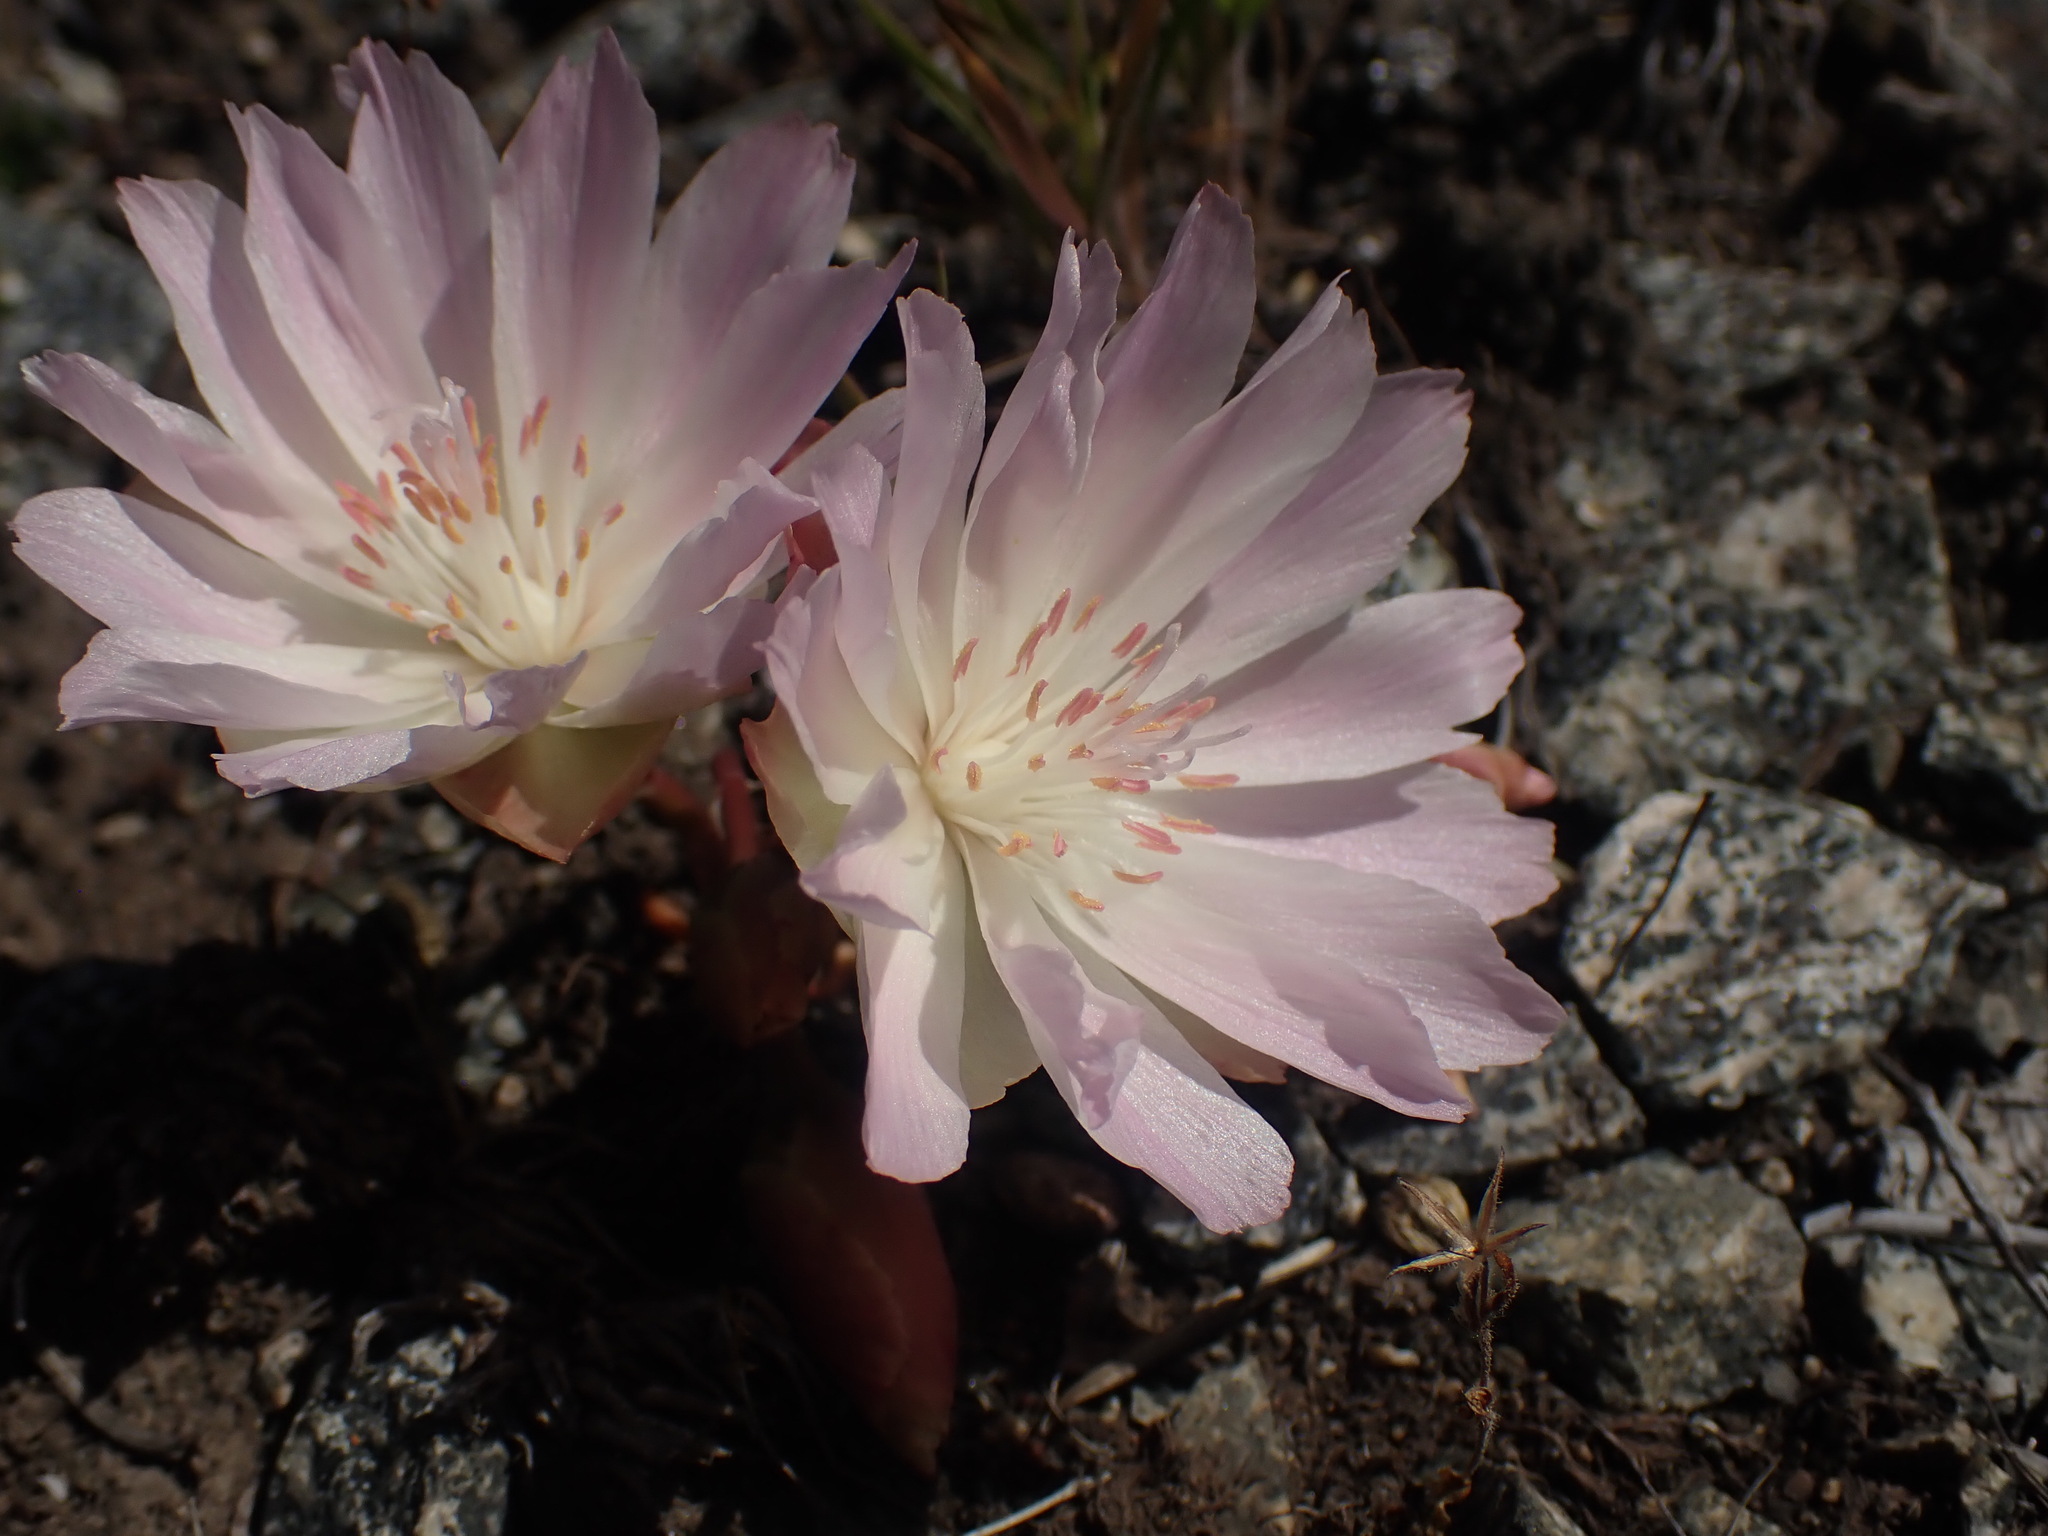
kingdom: Plantae
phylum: Tracheophyta
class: Magnoliopsida
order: Caryophyllales
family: Montiaceae
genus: Lewisia
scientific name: Lewisia rediviva
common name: Bitter-root
